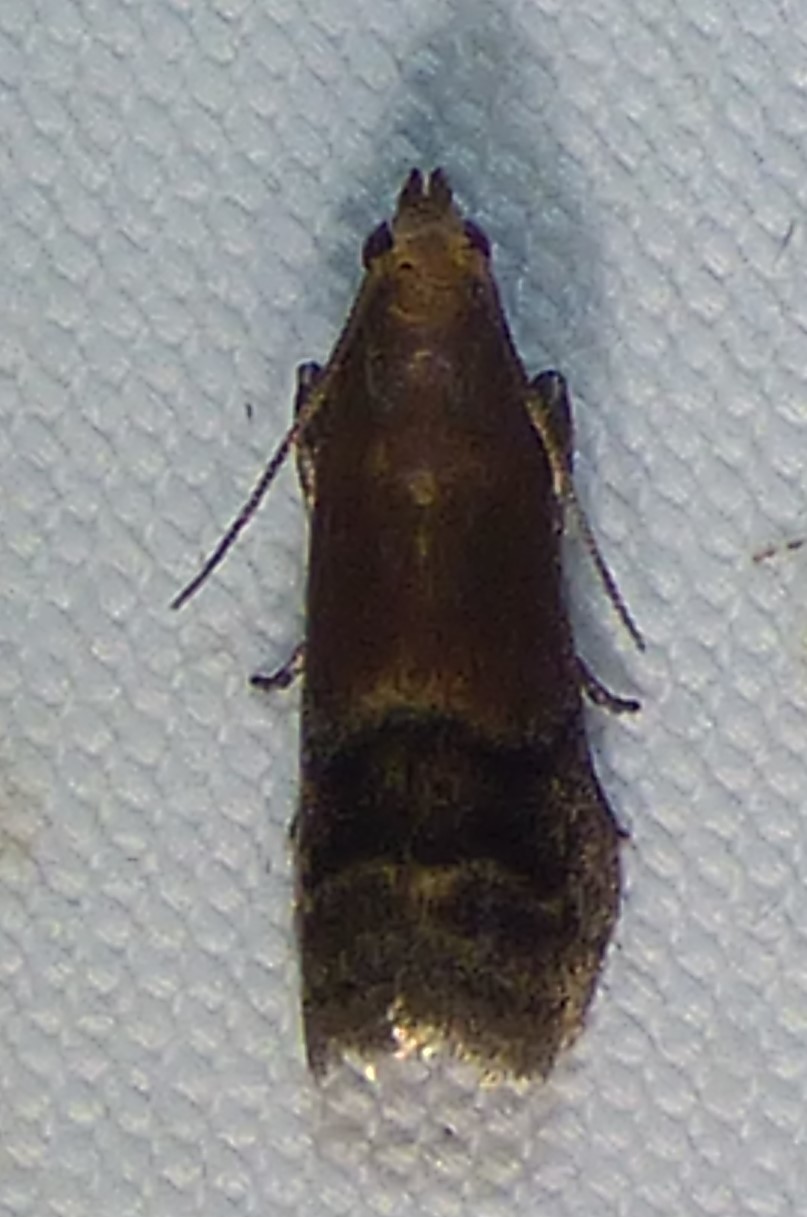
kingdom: Animalia
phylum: Arthropoda
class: Insecta
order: Lepidoptera
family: Pyralidae
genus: Eulogia
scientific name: Eulogia ochrifrontella
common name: Broad-banded eulogia moth
